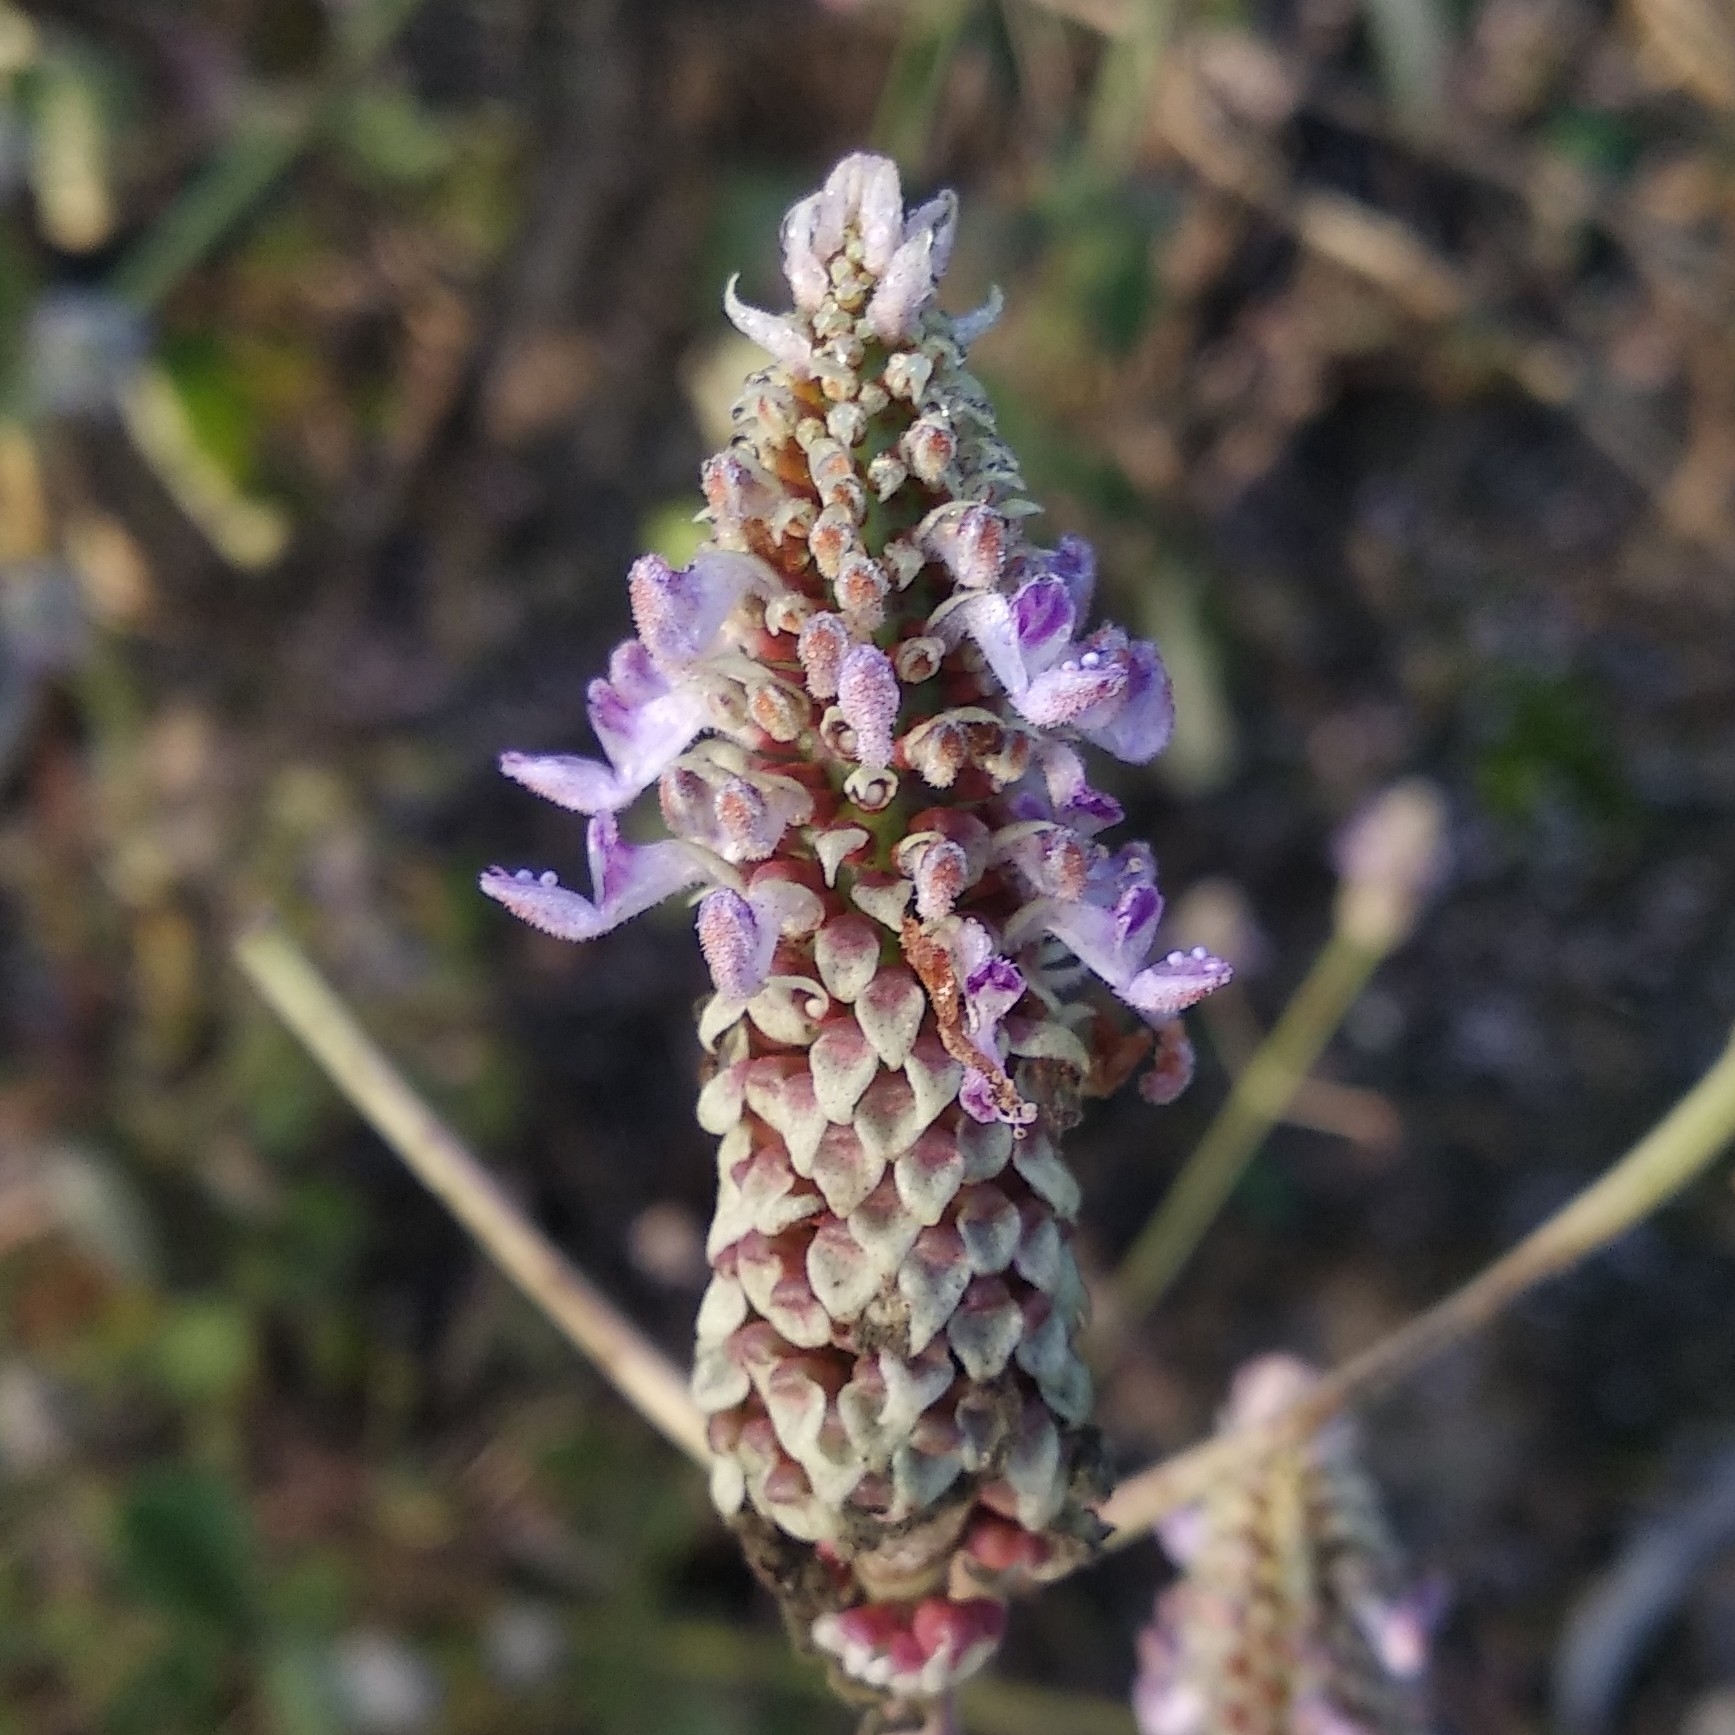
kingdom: Plantae
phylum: Tracheophyta
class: Magnoliopsida
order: Lamiales
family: Lamiaceae
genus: Coleus
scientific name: Coleus amboinicus
